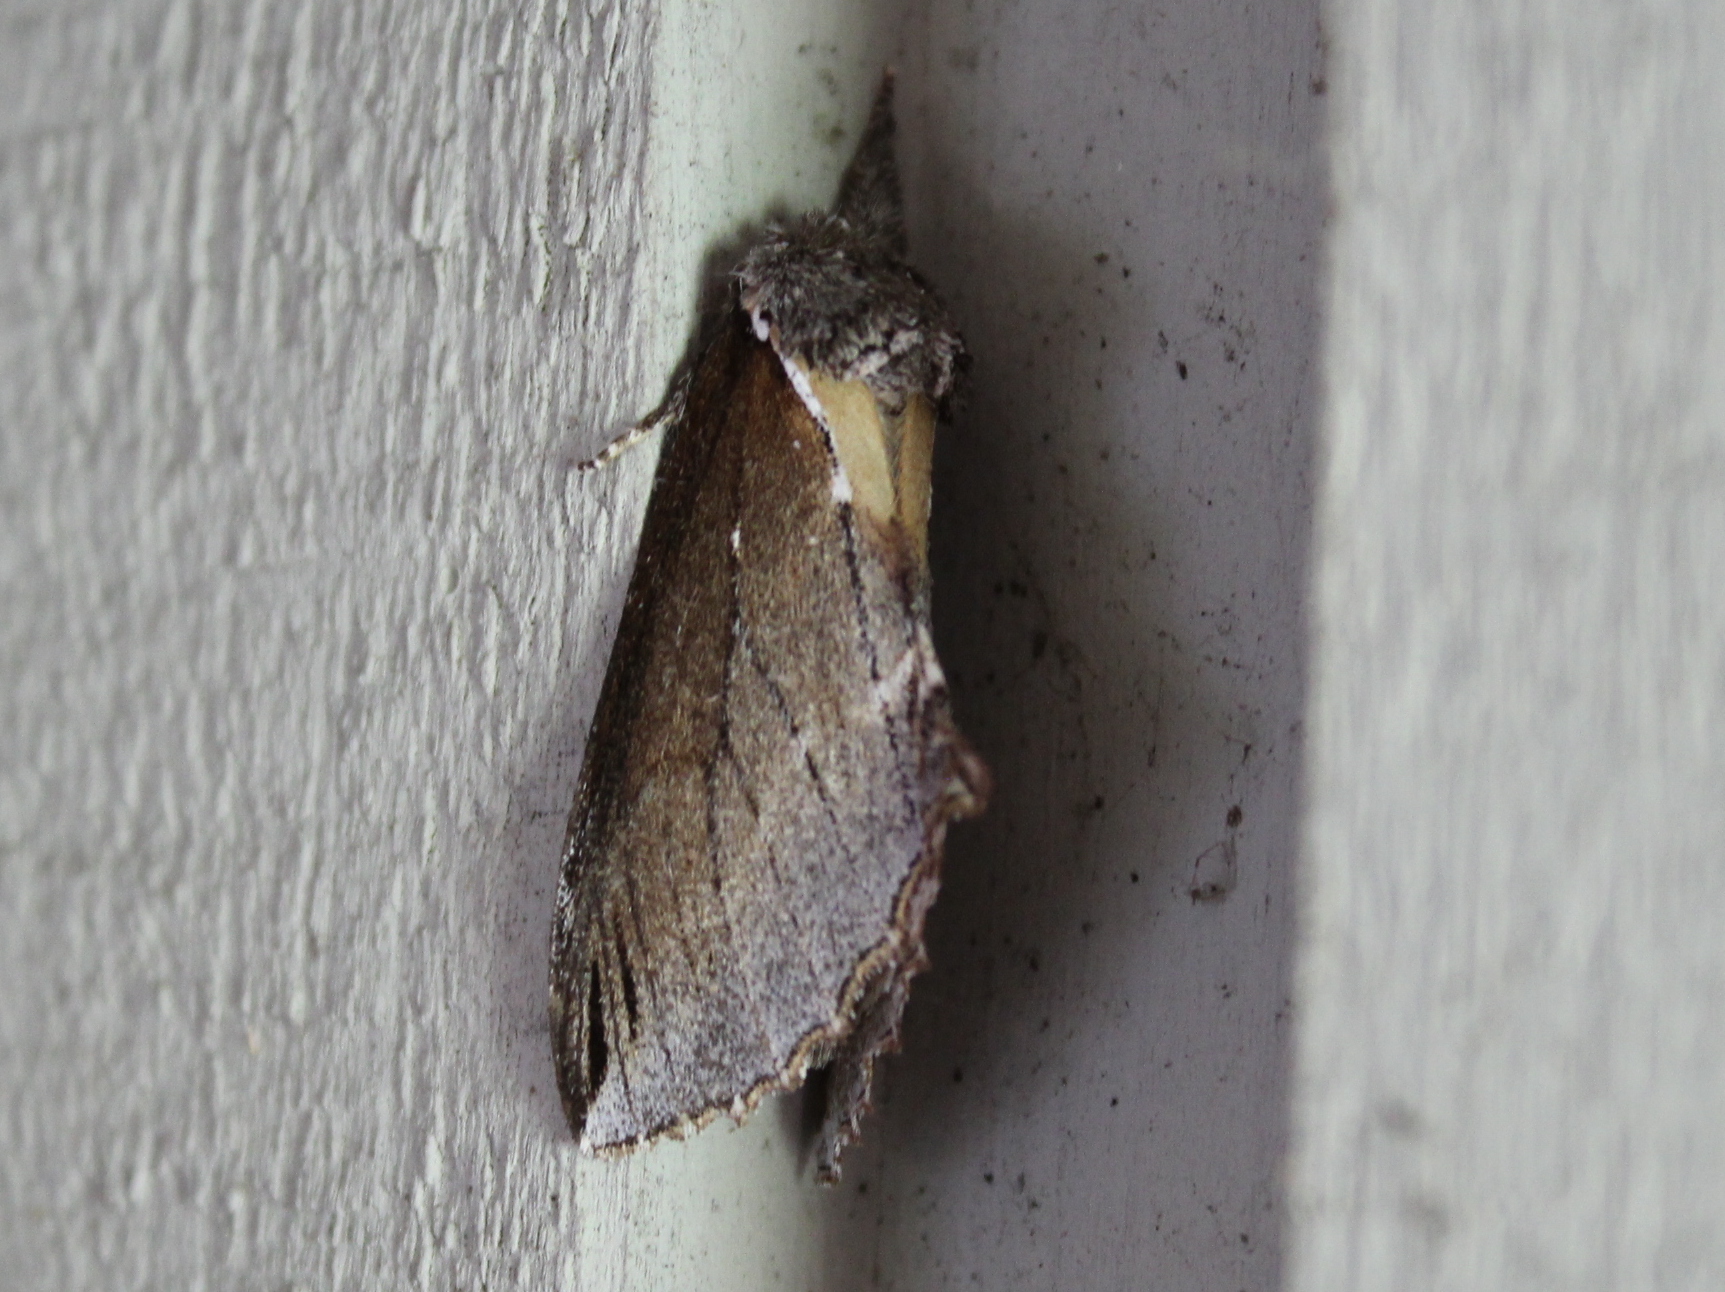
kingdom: Animalia
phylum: Arthropoda
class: Insecta
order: Lepidoptera
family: Notodontidae
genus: Pheosidea
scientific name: Pheosidea elegans
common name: Elegant prominent
